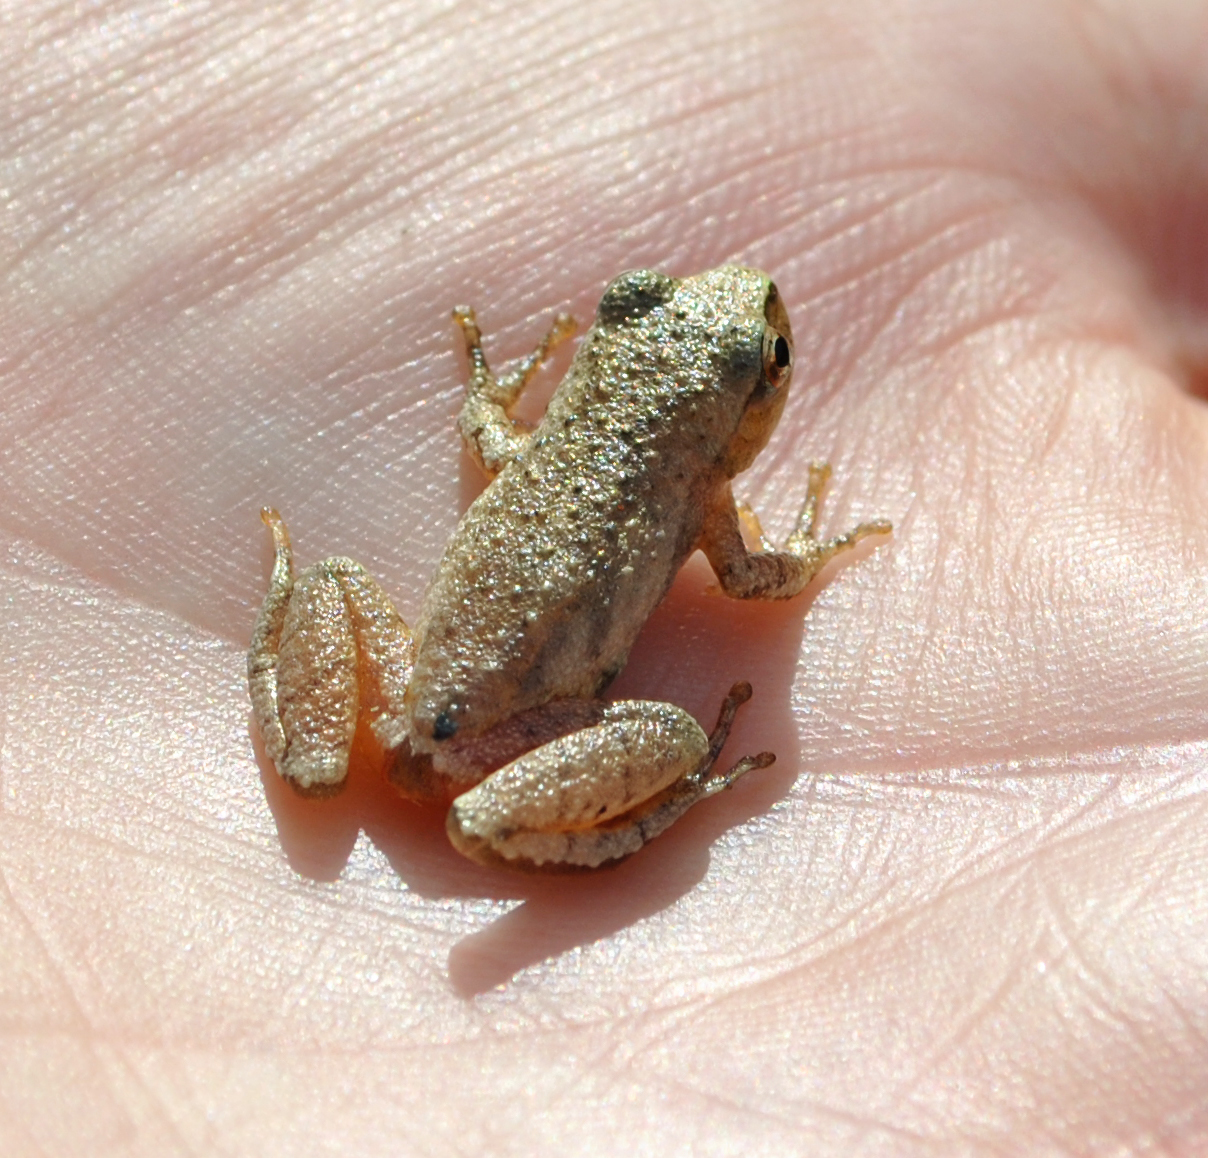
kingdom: Animalia
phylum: Chordata
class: Amphibia
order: Anura
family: Hylidae
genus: Pseudacris
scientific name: Pseudacris crucifer
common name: Spring peeper
